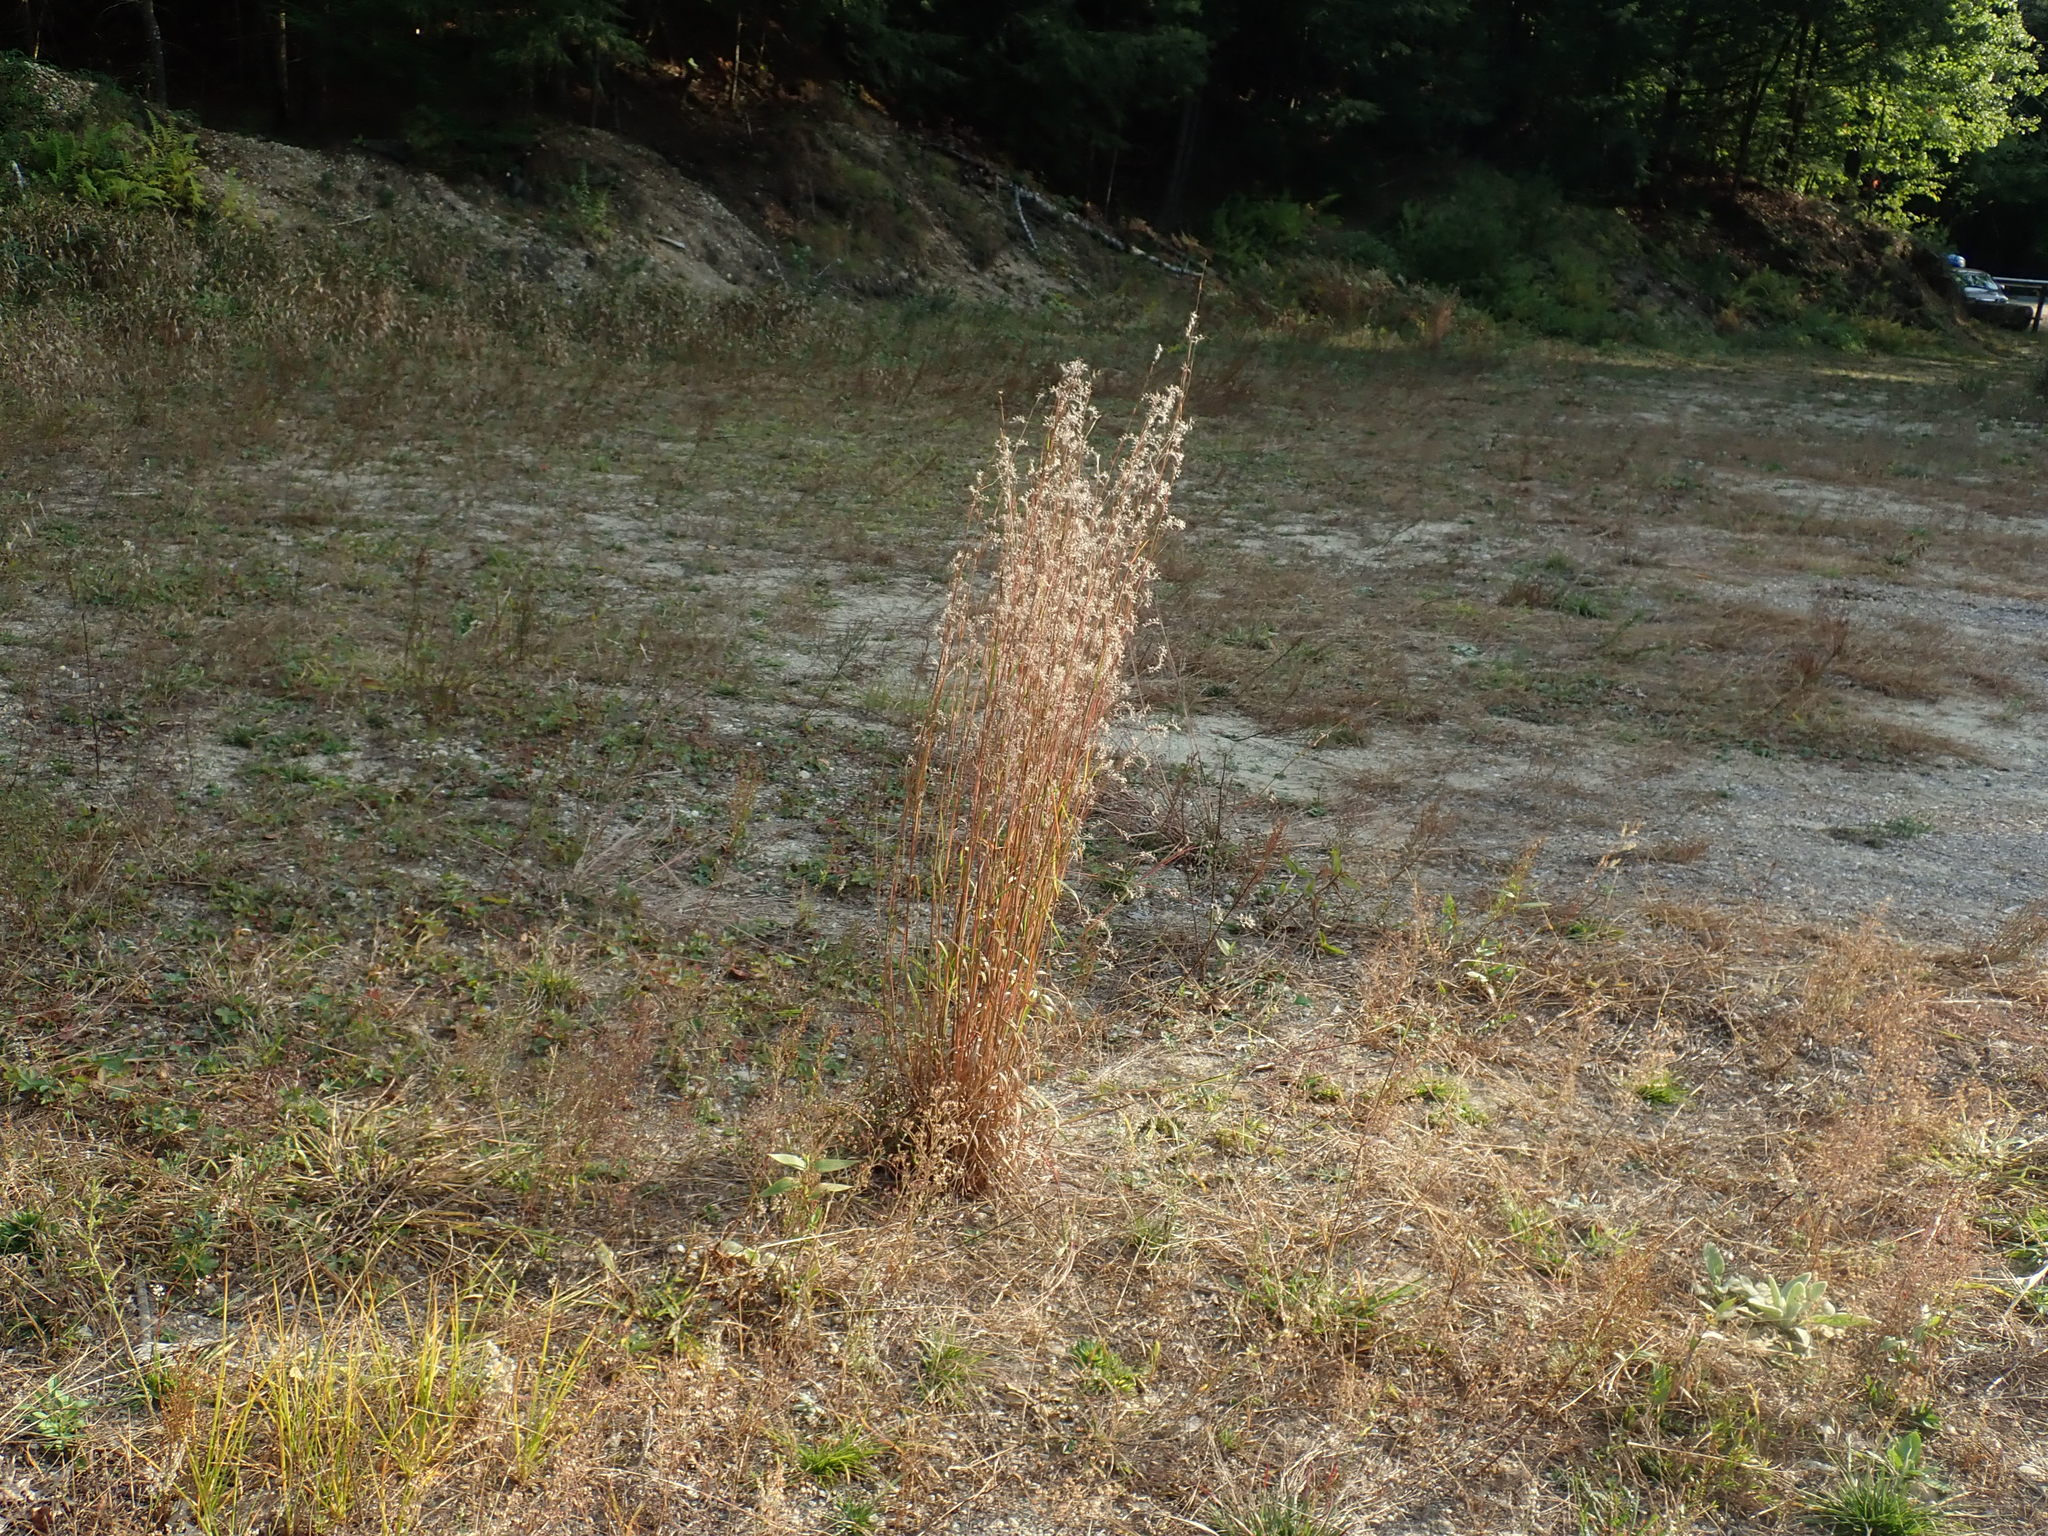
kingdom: Plantae
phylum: Tracheophyta
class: Liliopsida
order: Poales
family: Poaceae
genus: Schizachyrium
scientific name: Schizachyrium scoparium
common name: Little bluestem
